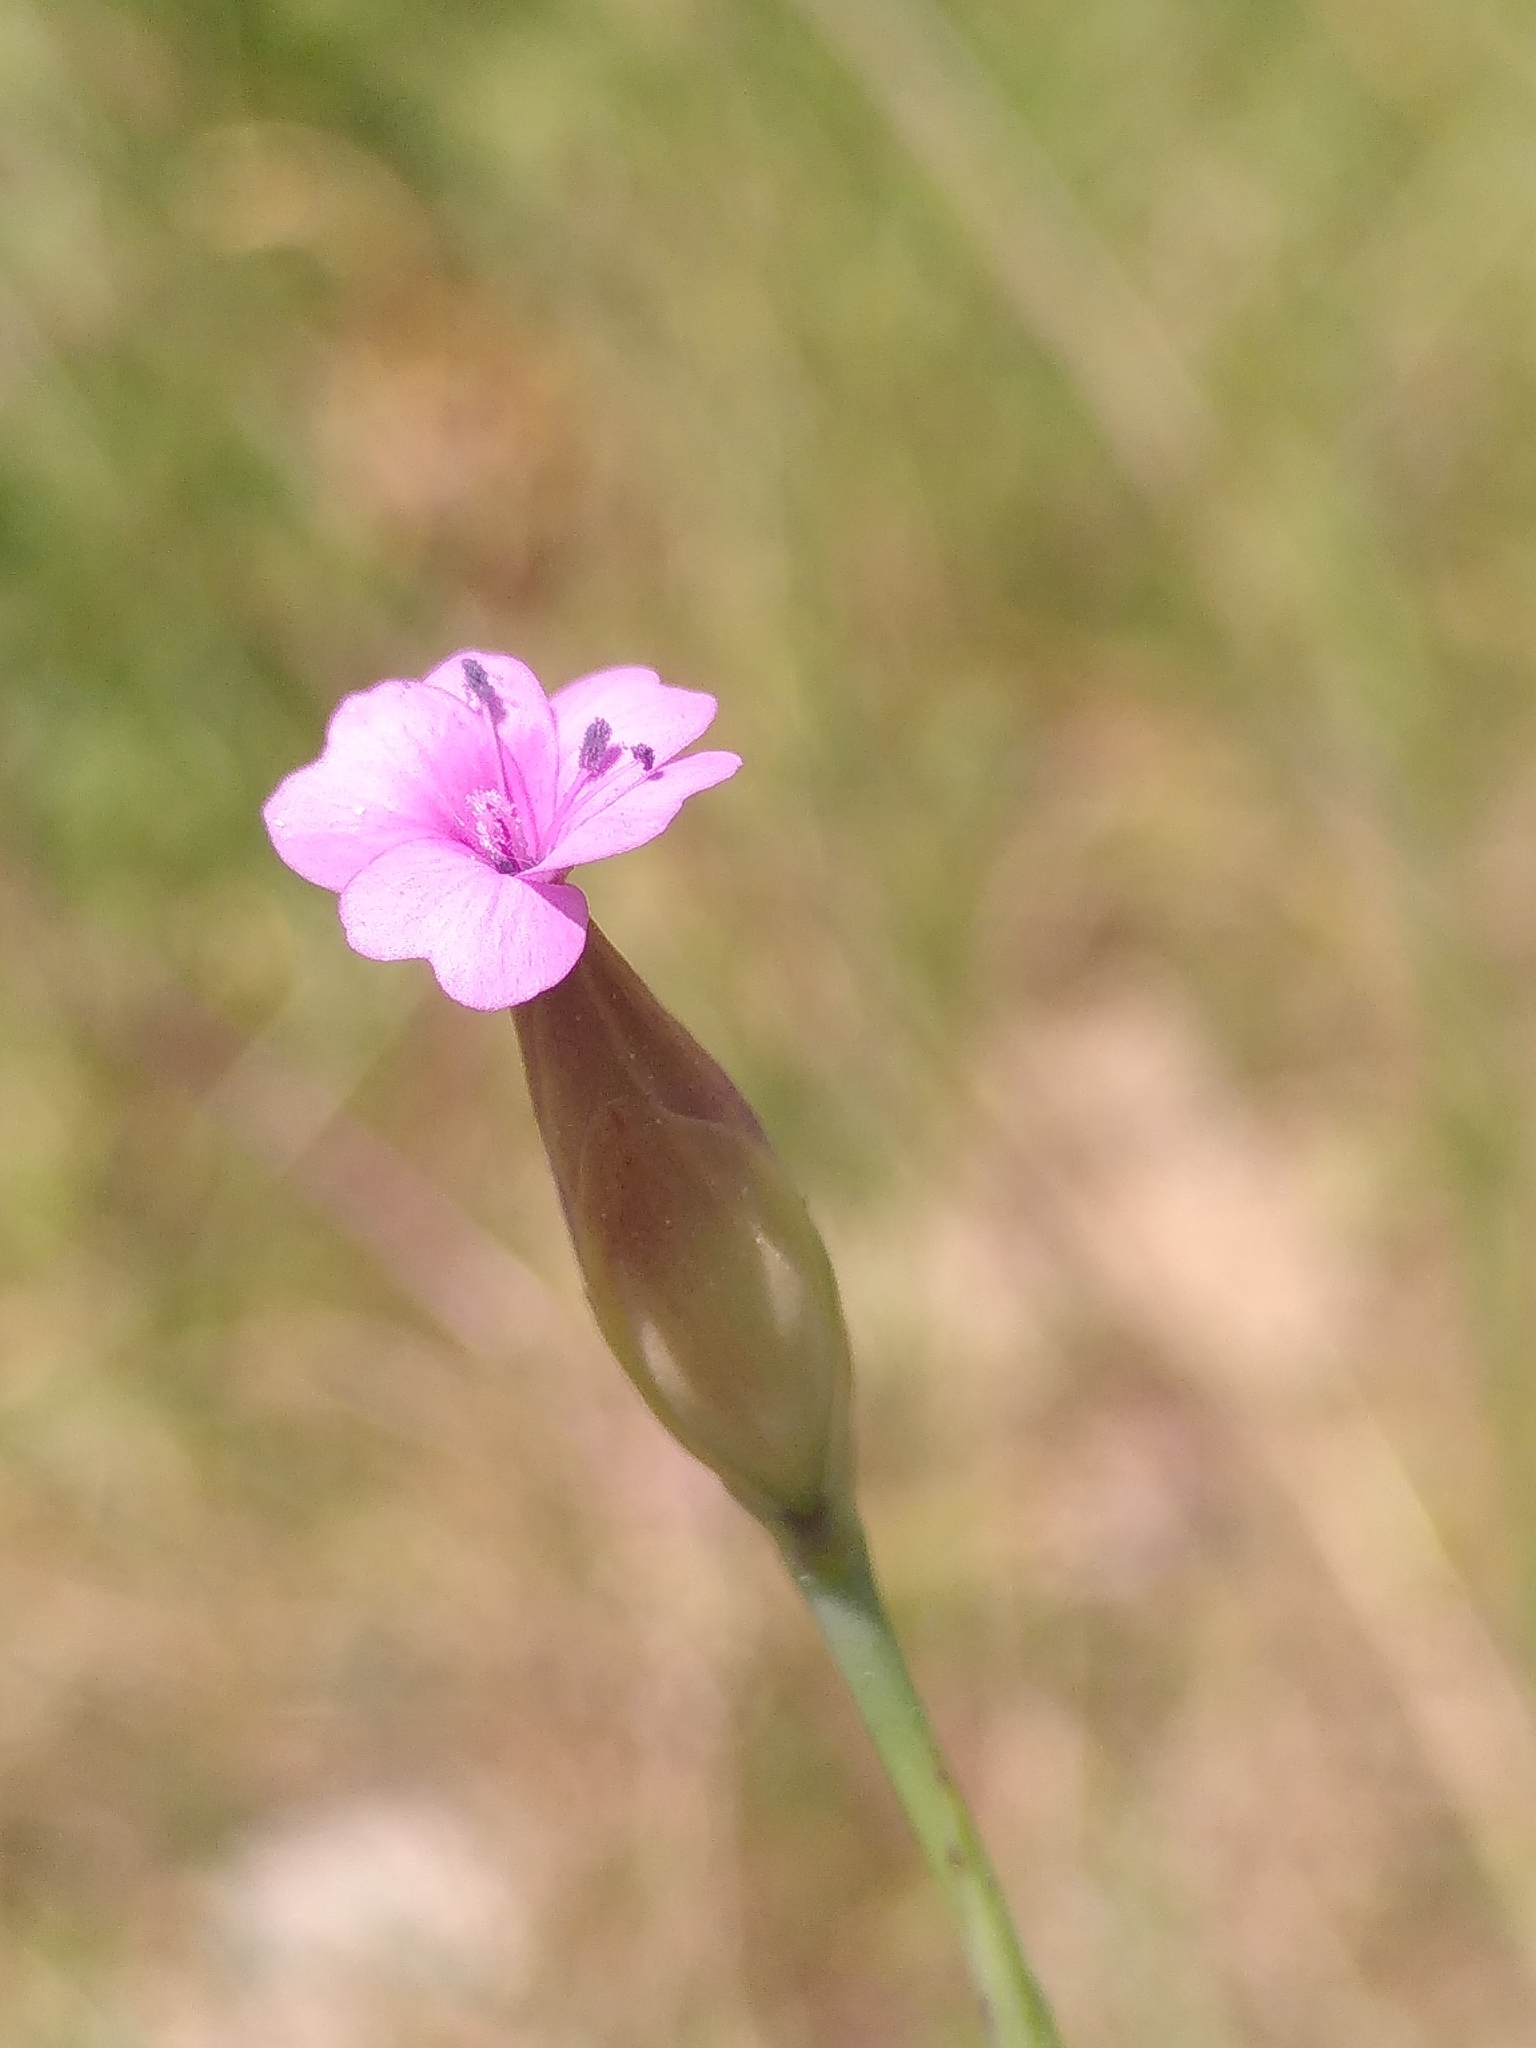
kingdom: Plantae
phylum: Tracheophyta
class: Magnoliopsida
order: Caryophyllales
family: Caryophyllaceae
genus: Petrorhagia
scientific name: Petrorhagia prolifera
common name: Proliferous pink
